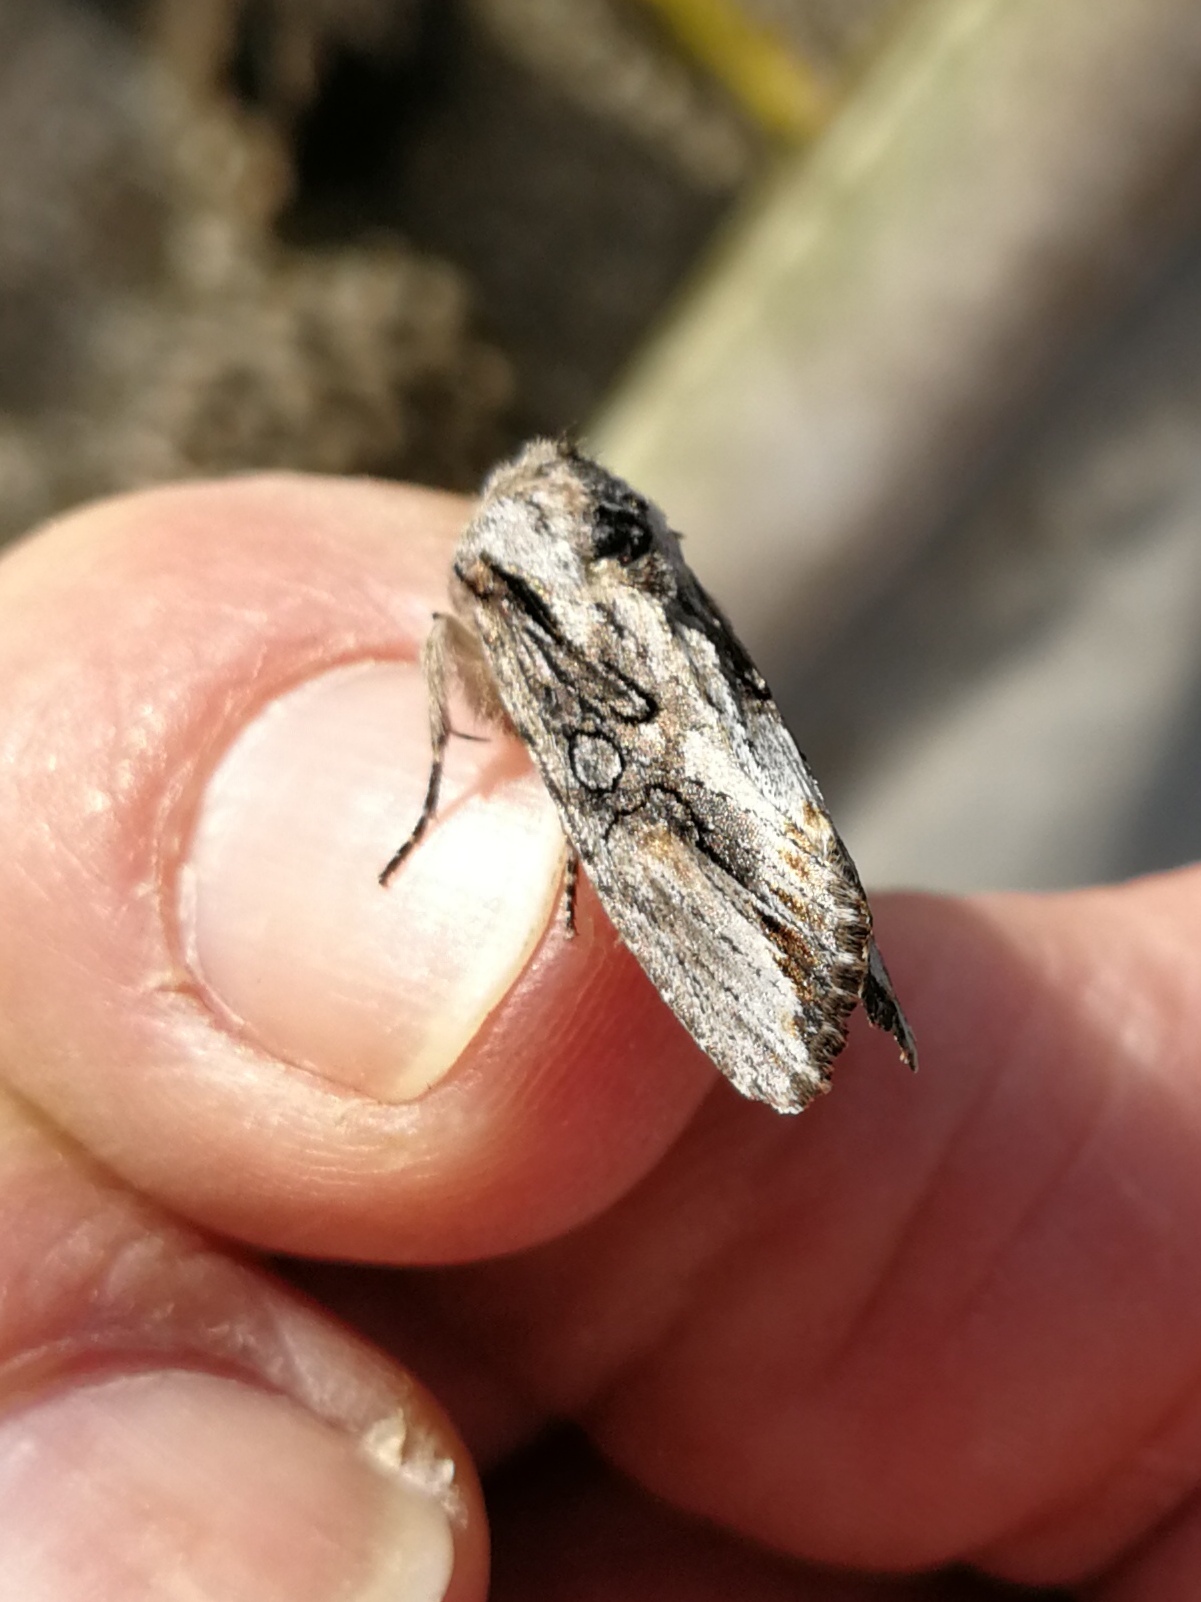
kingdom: Animalia
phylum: Arthropoda
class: Insecta
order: Lepidoptera
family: Noctuidae
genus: Egira
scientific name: Egira conspicillaris
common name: Silver cloud
